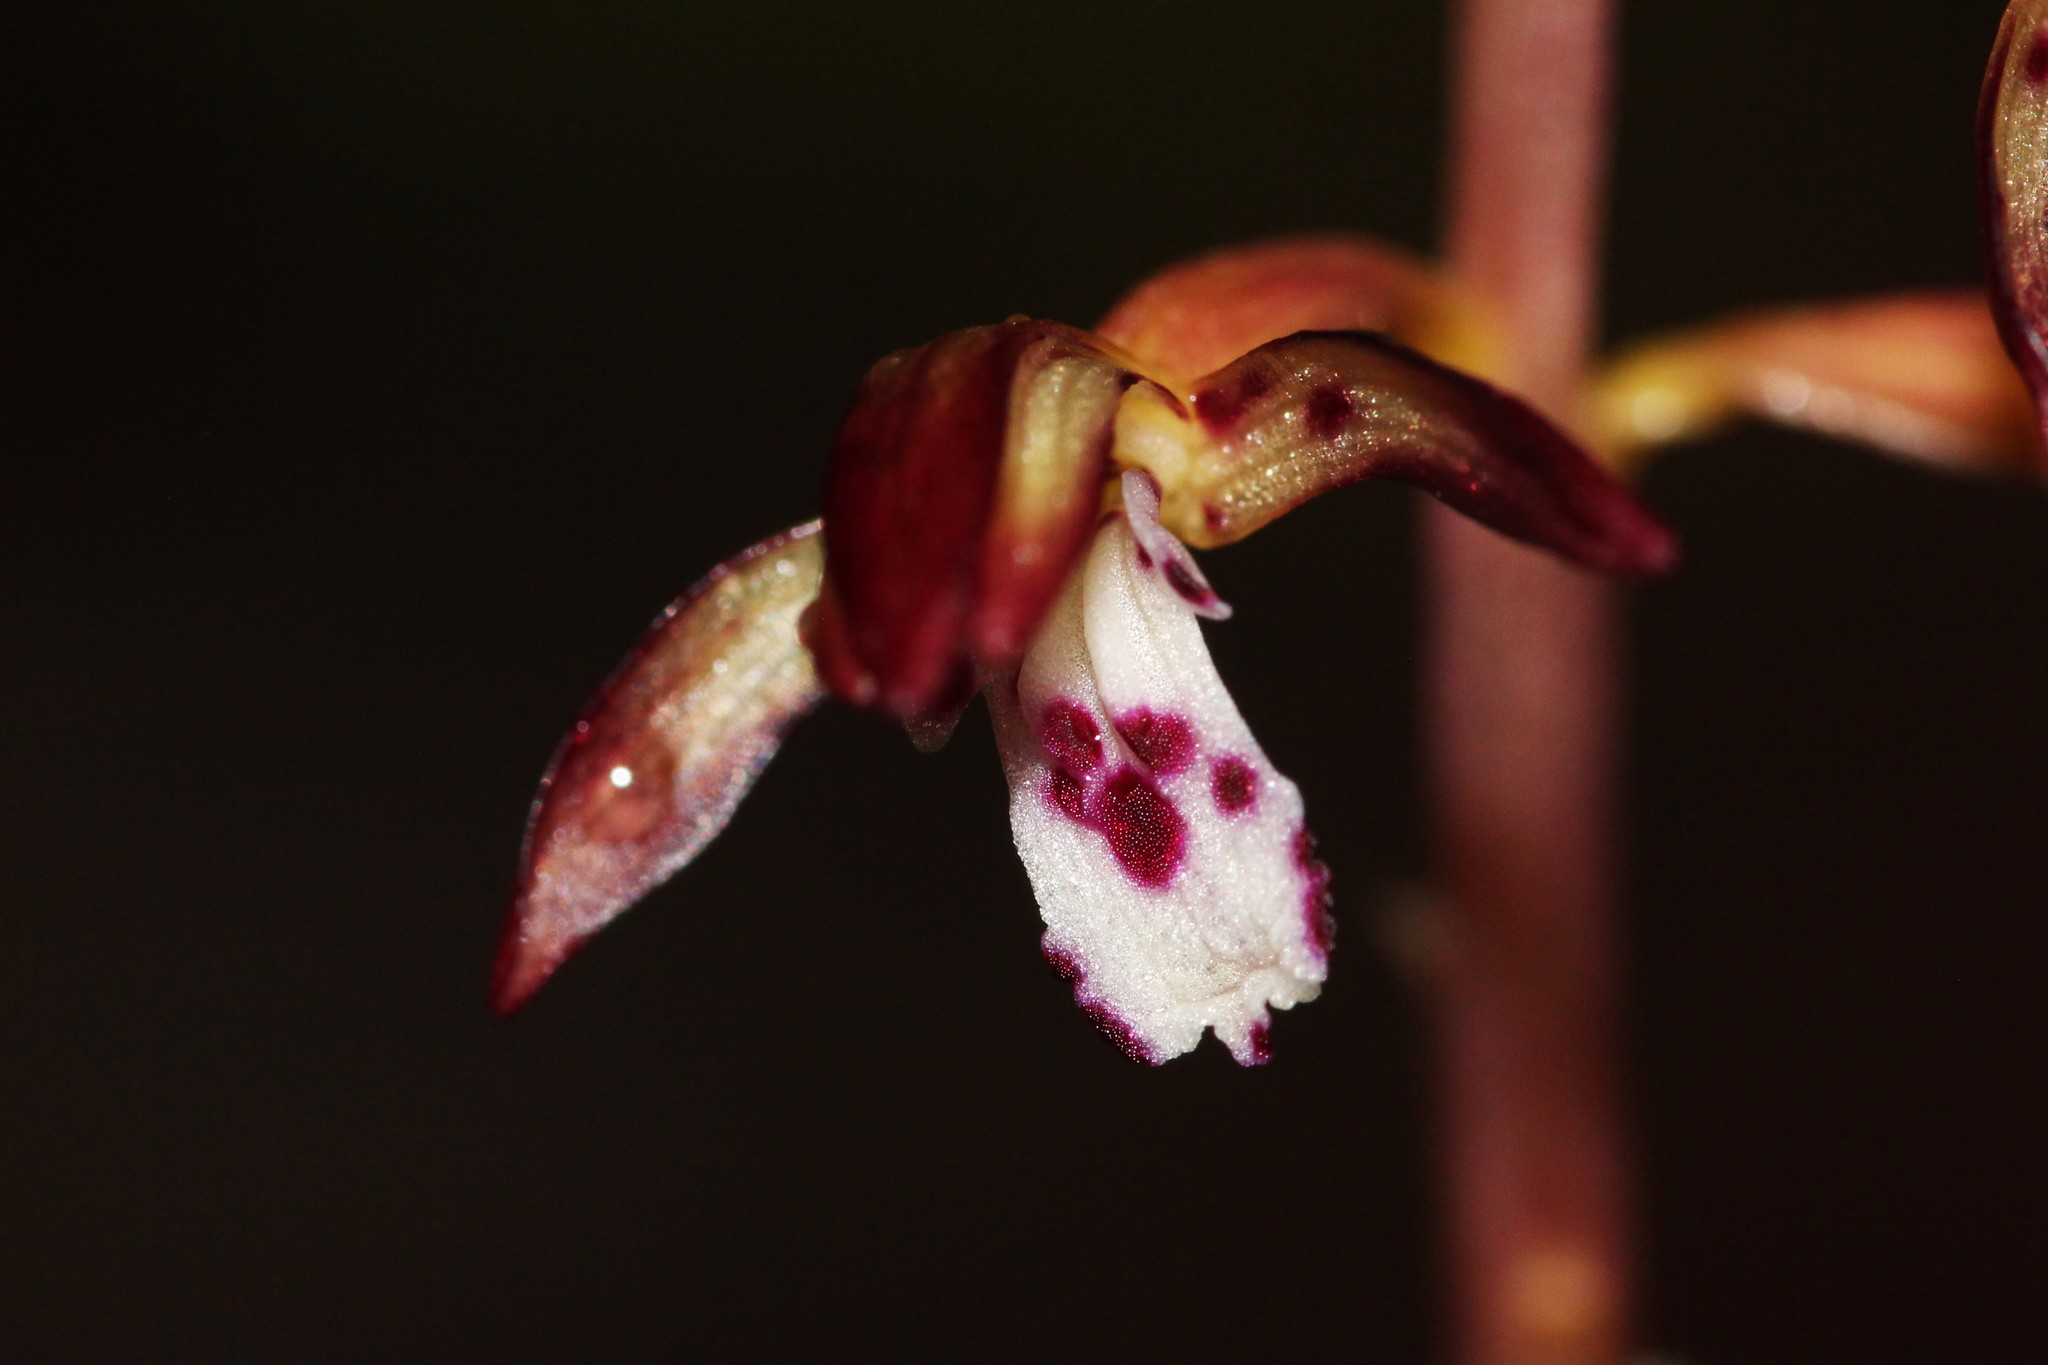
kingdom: Plantae
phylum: Tracheophyta
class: Liliopsida
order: Asparagales
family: Orchidaceae
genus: Corallorhiza
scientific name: Corallorhiza maculata
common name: Spotted coralroot
